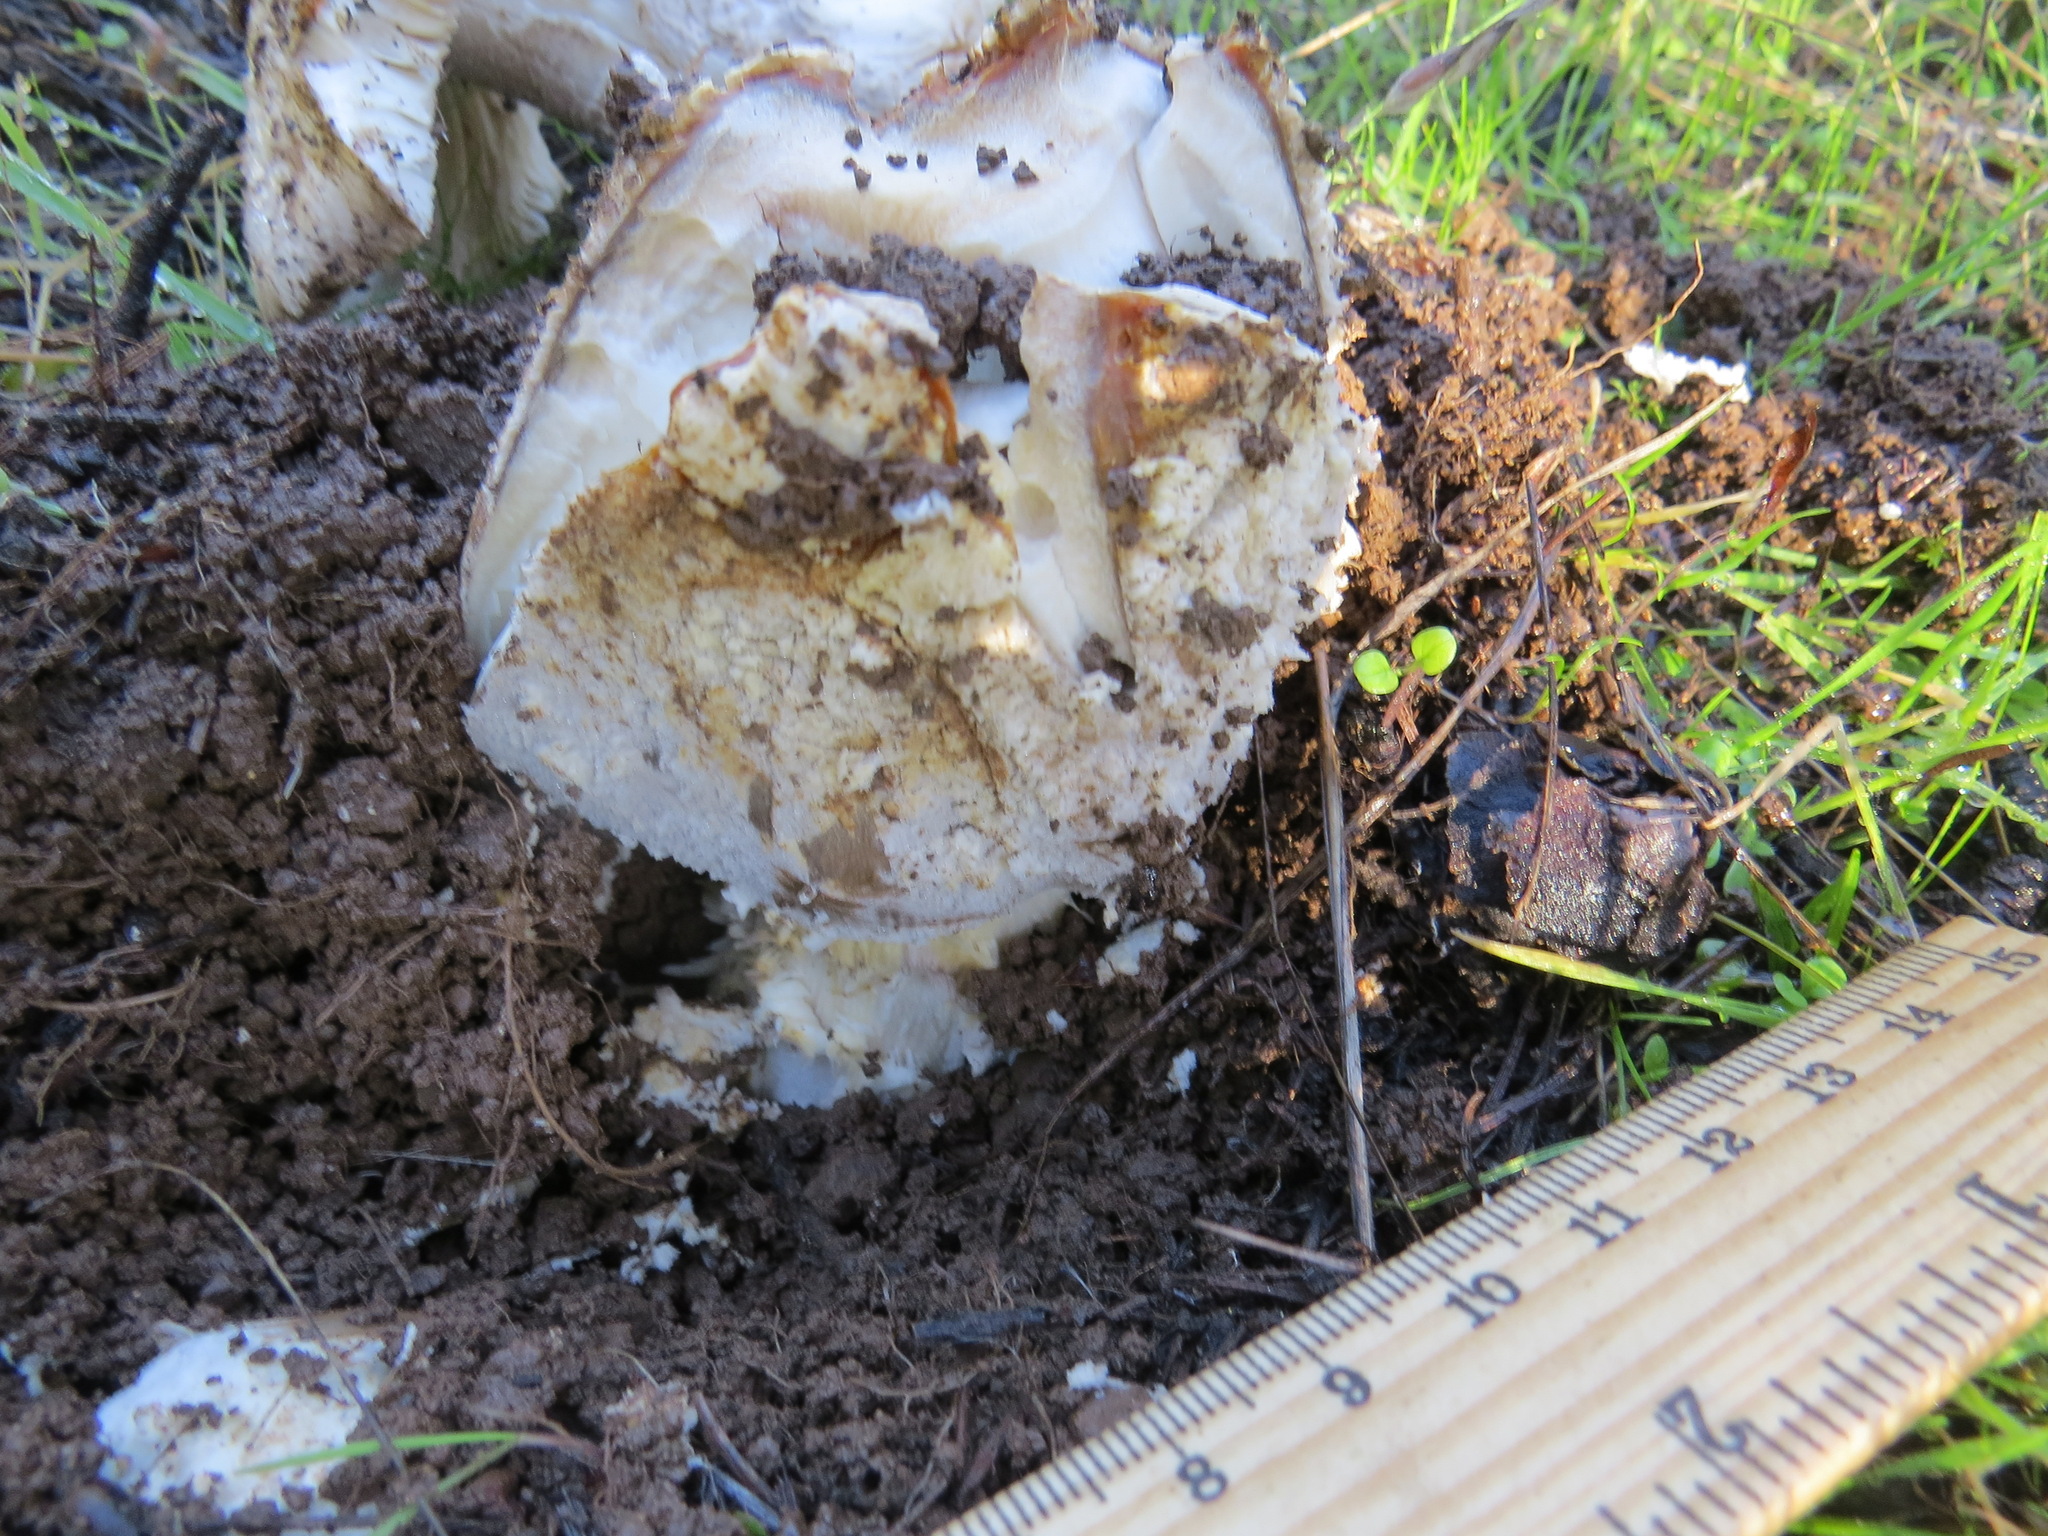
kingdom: Fungi
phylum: Basidiomycota
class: Agaricomycetes
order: Agaricales
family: Amanitaceae
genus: Amanita
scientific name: Amanita muscaria
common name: Fly agaric
